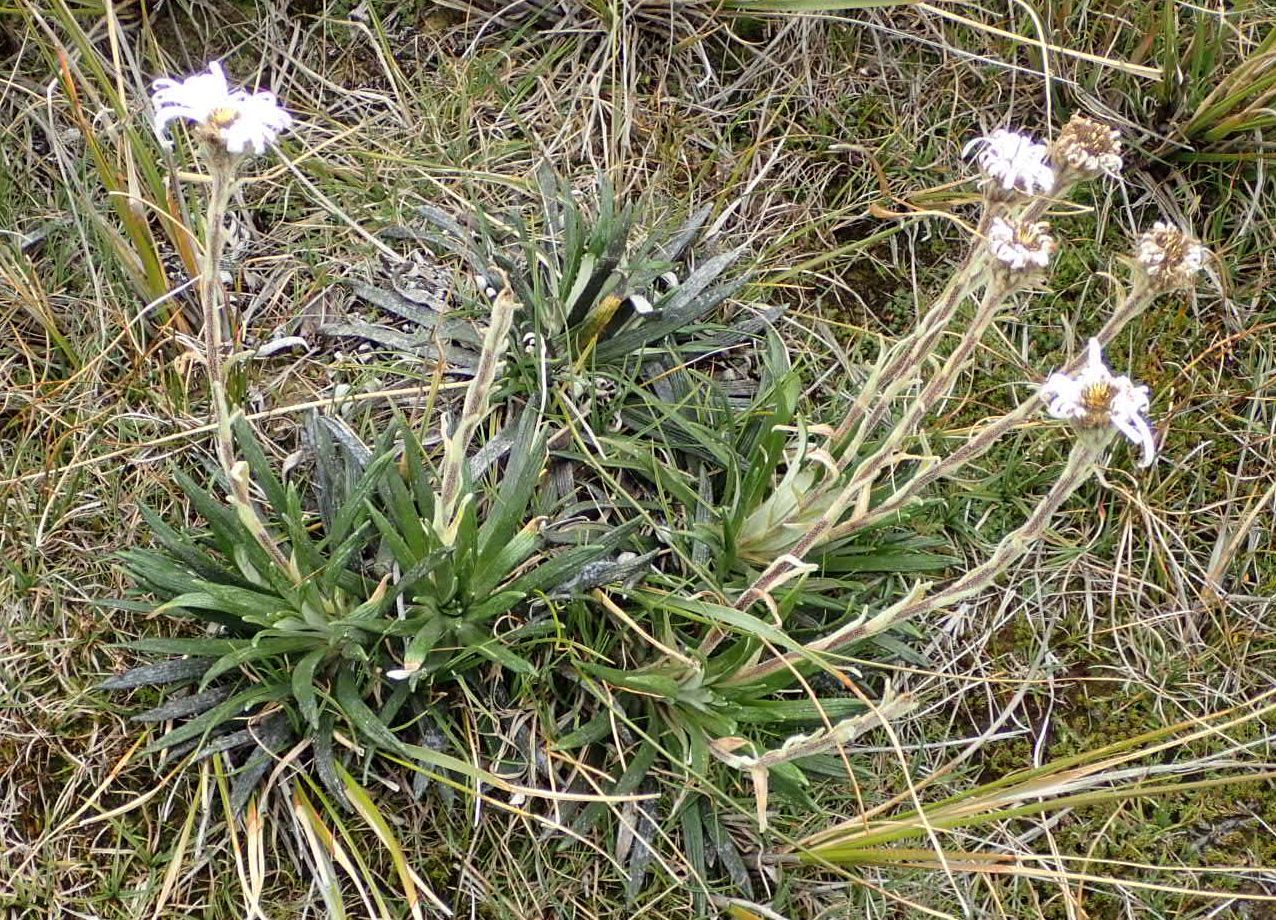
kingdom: Plantae
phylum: Tracheophyta
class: Magnoliopsida
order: Asterales
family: Asteraceae
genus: Celmisia
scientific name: Celmisia viscosa
